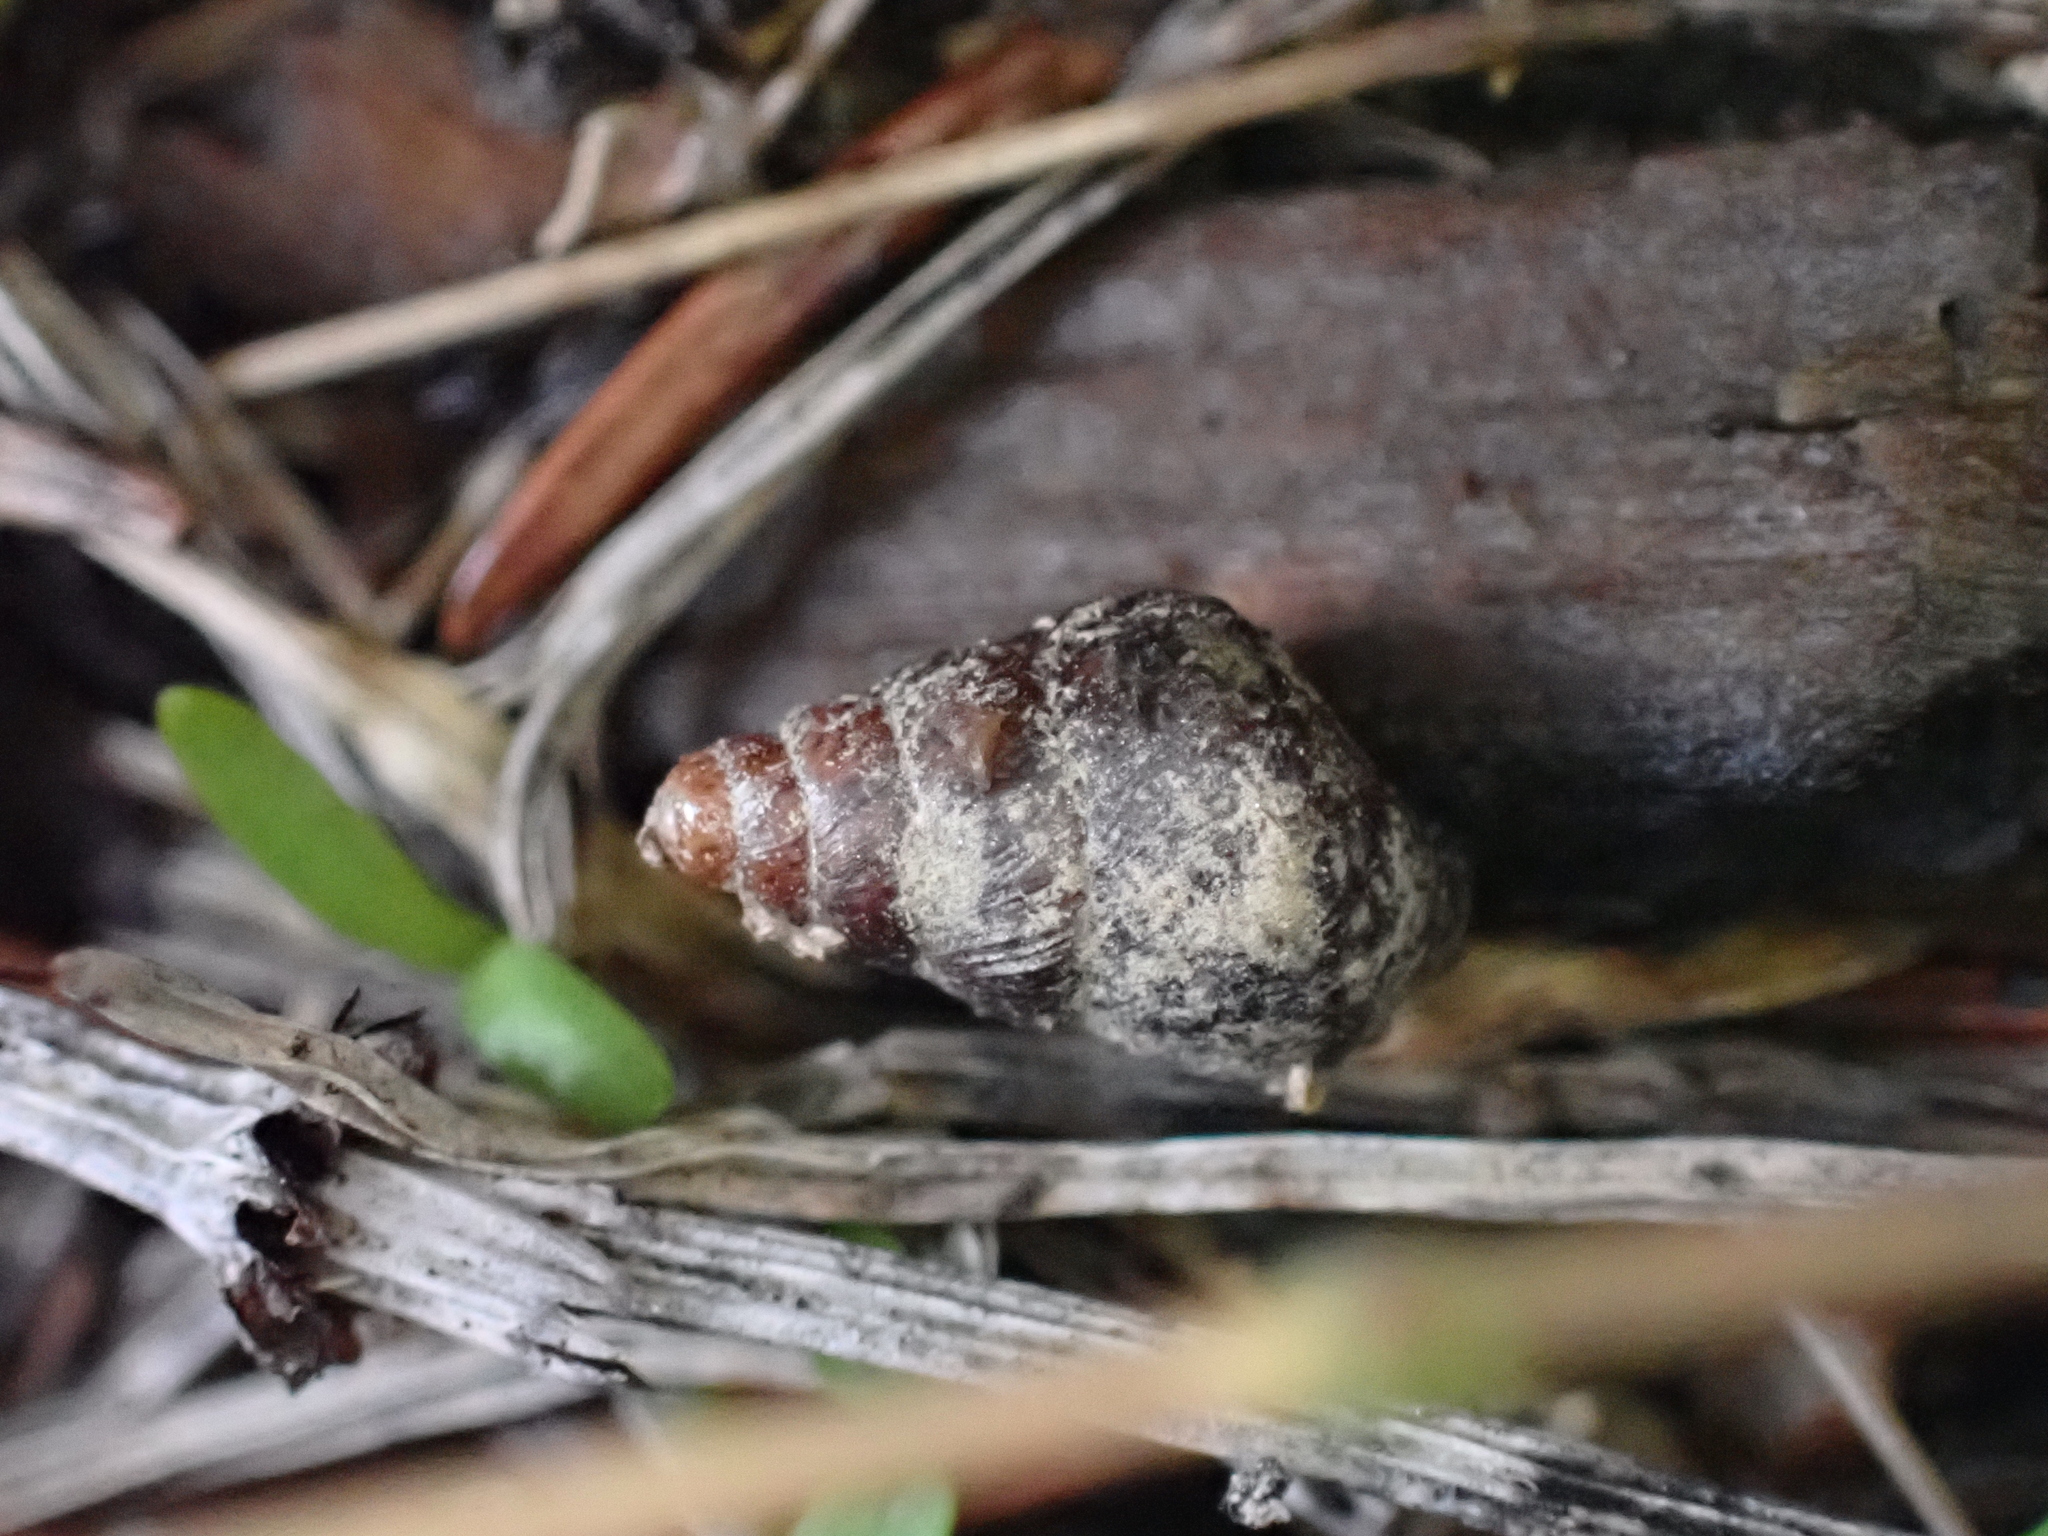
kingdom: Animalia
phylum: Mollusca
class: Gastropoda
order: Stylommatophora
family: Enidae
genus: Ena
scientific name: Ena montana
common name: Mountain bulin
